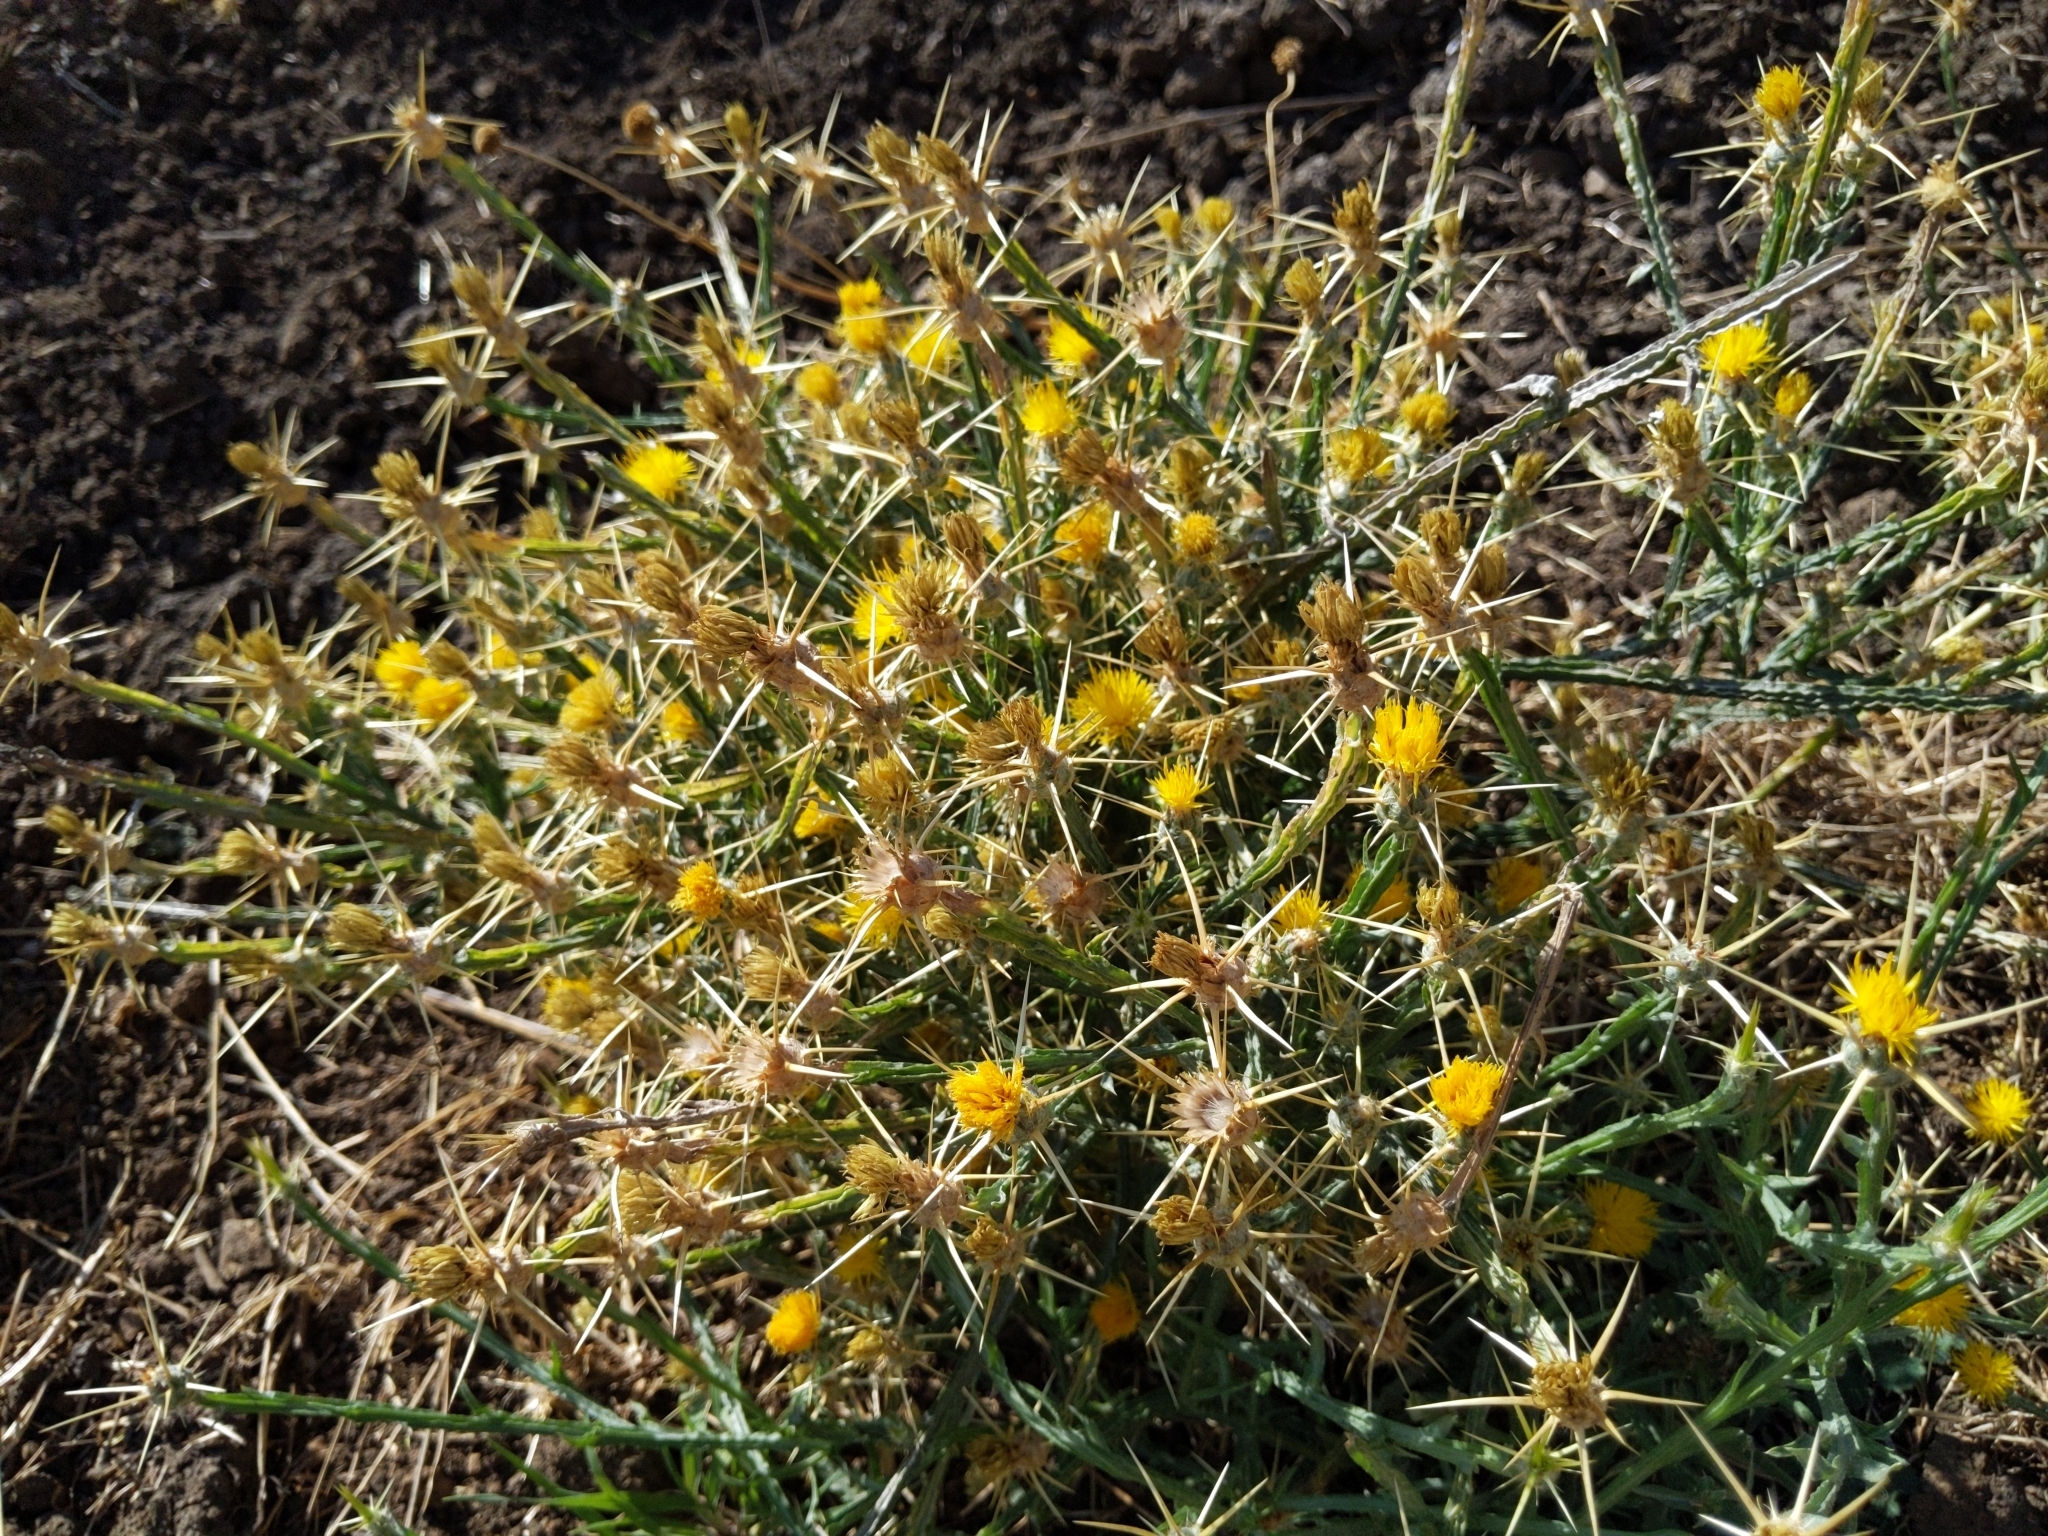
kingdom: Plantae
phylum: Tracheophyta
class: Magnoliopsida
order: Asterales
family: Asteraceae
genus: Centaurea
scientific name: Centaurea solstitialis
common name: Yellow star-thistle
